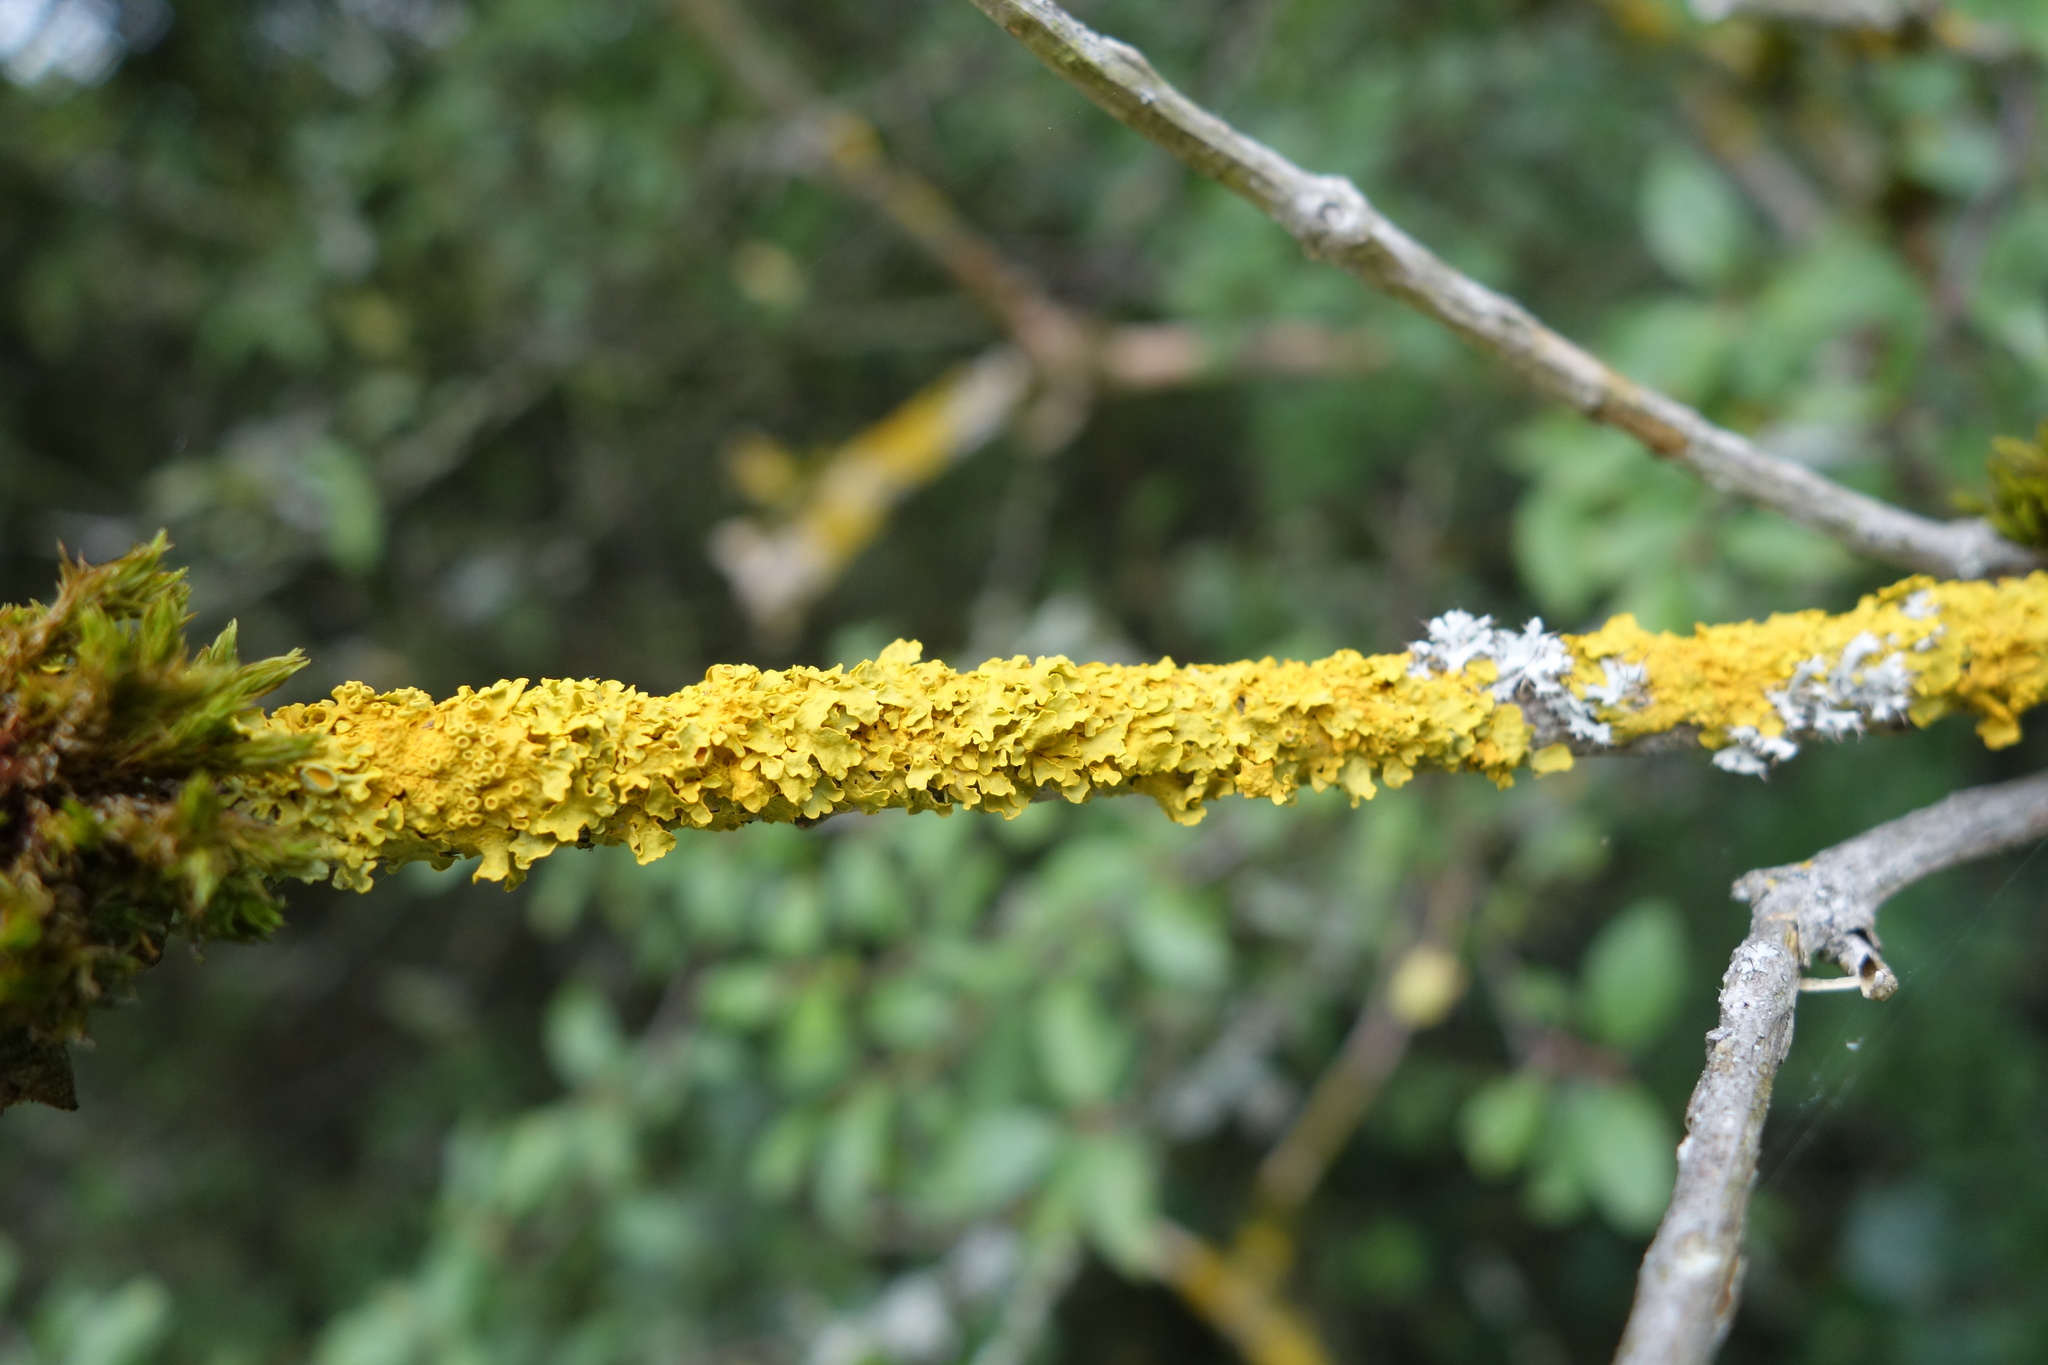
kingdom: Fungi
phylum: Ascomycota
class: Lecanoromycetes
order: Teloschistales
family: Teloschistaceae
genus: Xanthoria
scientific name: Xanthoria parietina
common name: Common orange lichen
